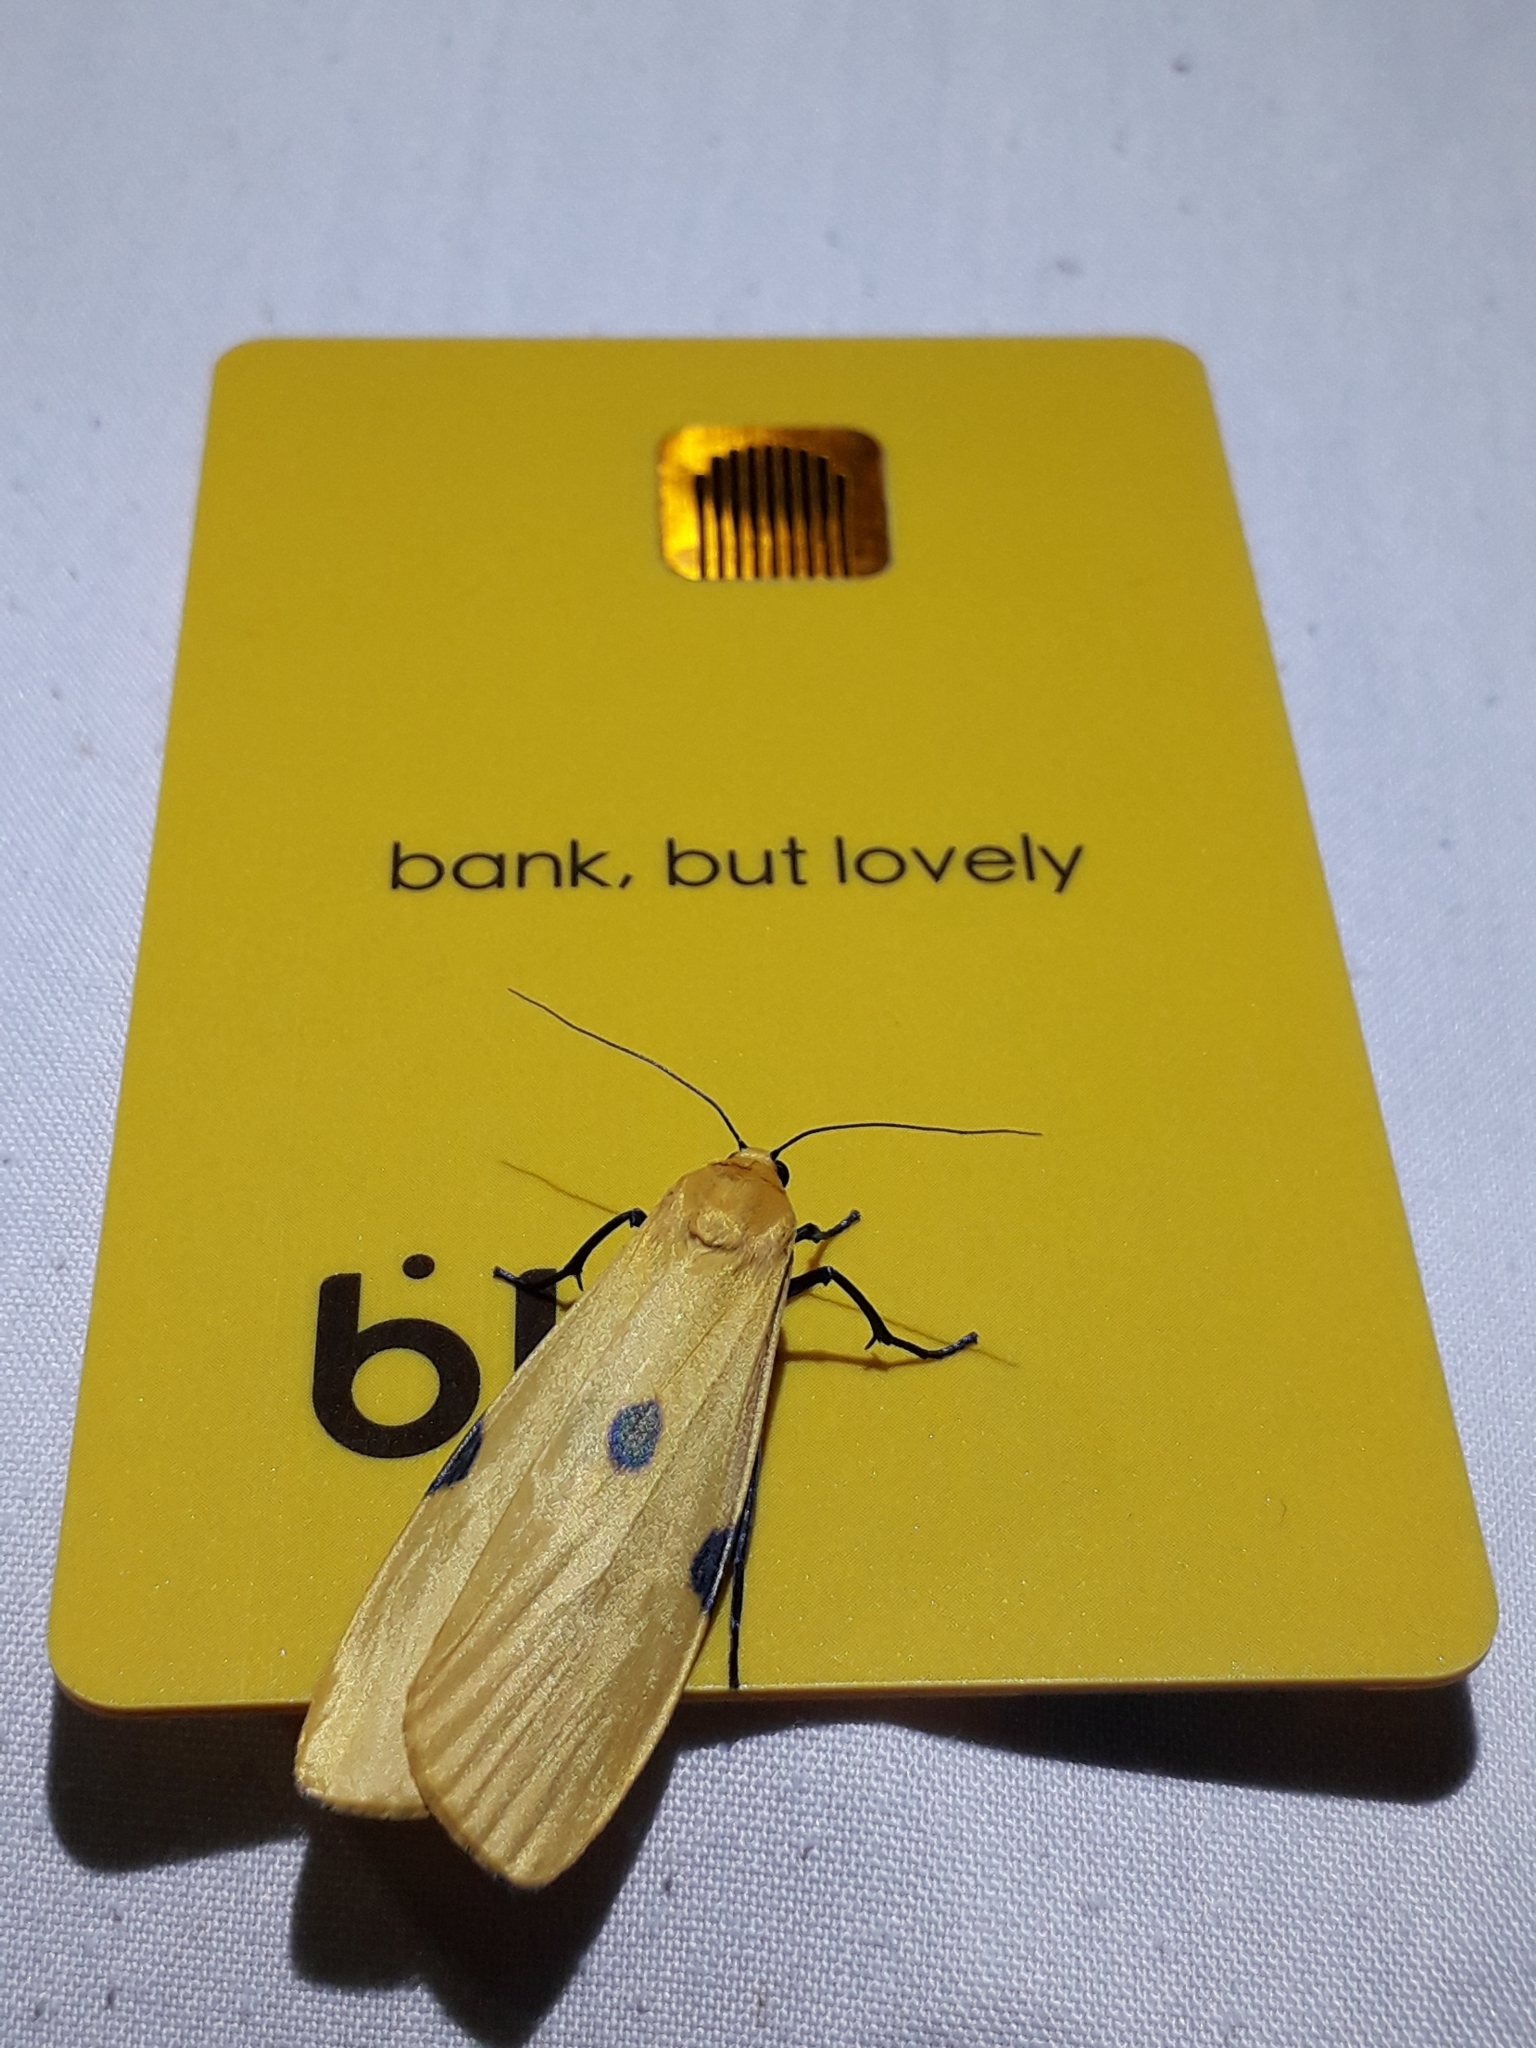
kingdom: Animalia
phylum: Arthropoda
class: Insecta
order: Lepidoptera
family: Erebidae
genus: Lithosia
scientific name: Lithosia quadra
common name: Four-spotted footman
